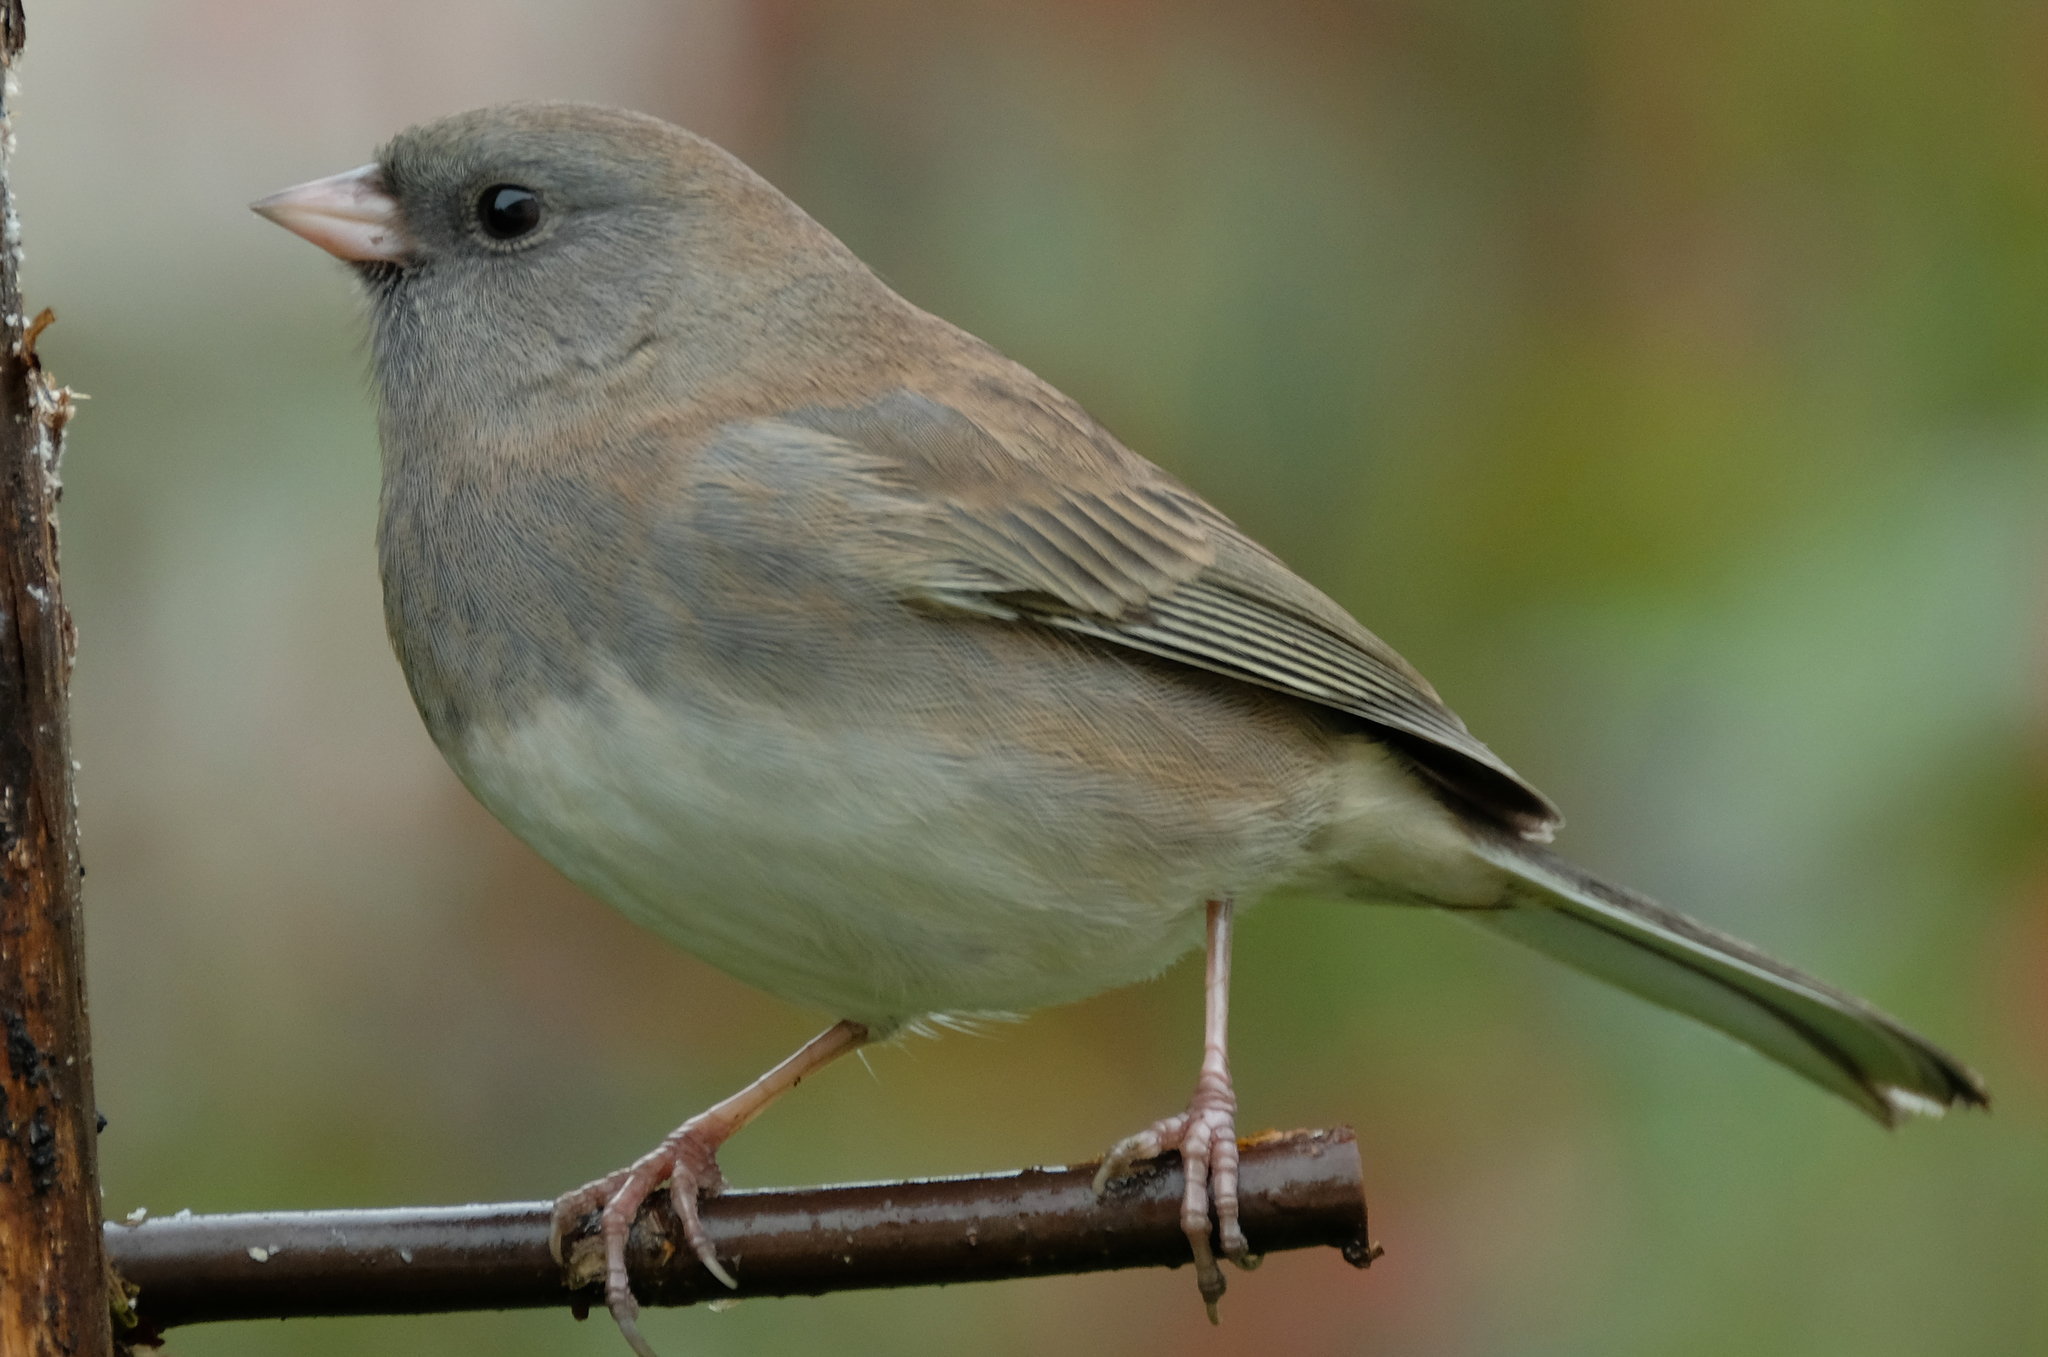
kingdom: Animalia
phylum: Chordata
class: Aves
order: Passeriformes
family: Passerellidae
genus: Junco
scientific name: Junco hyemalis
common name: Dark-eyed junco
